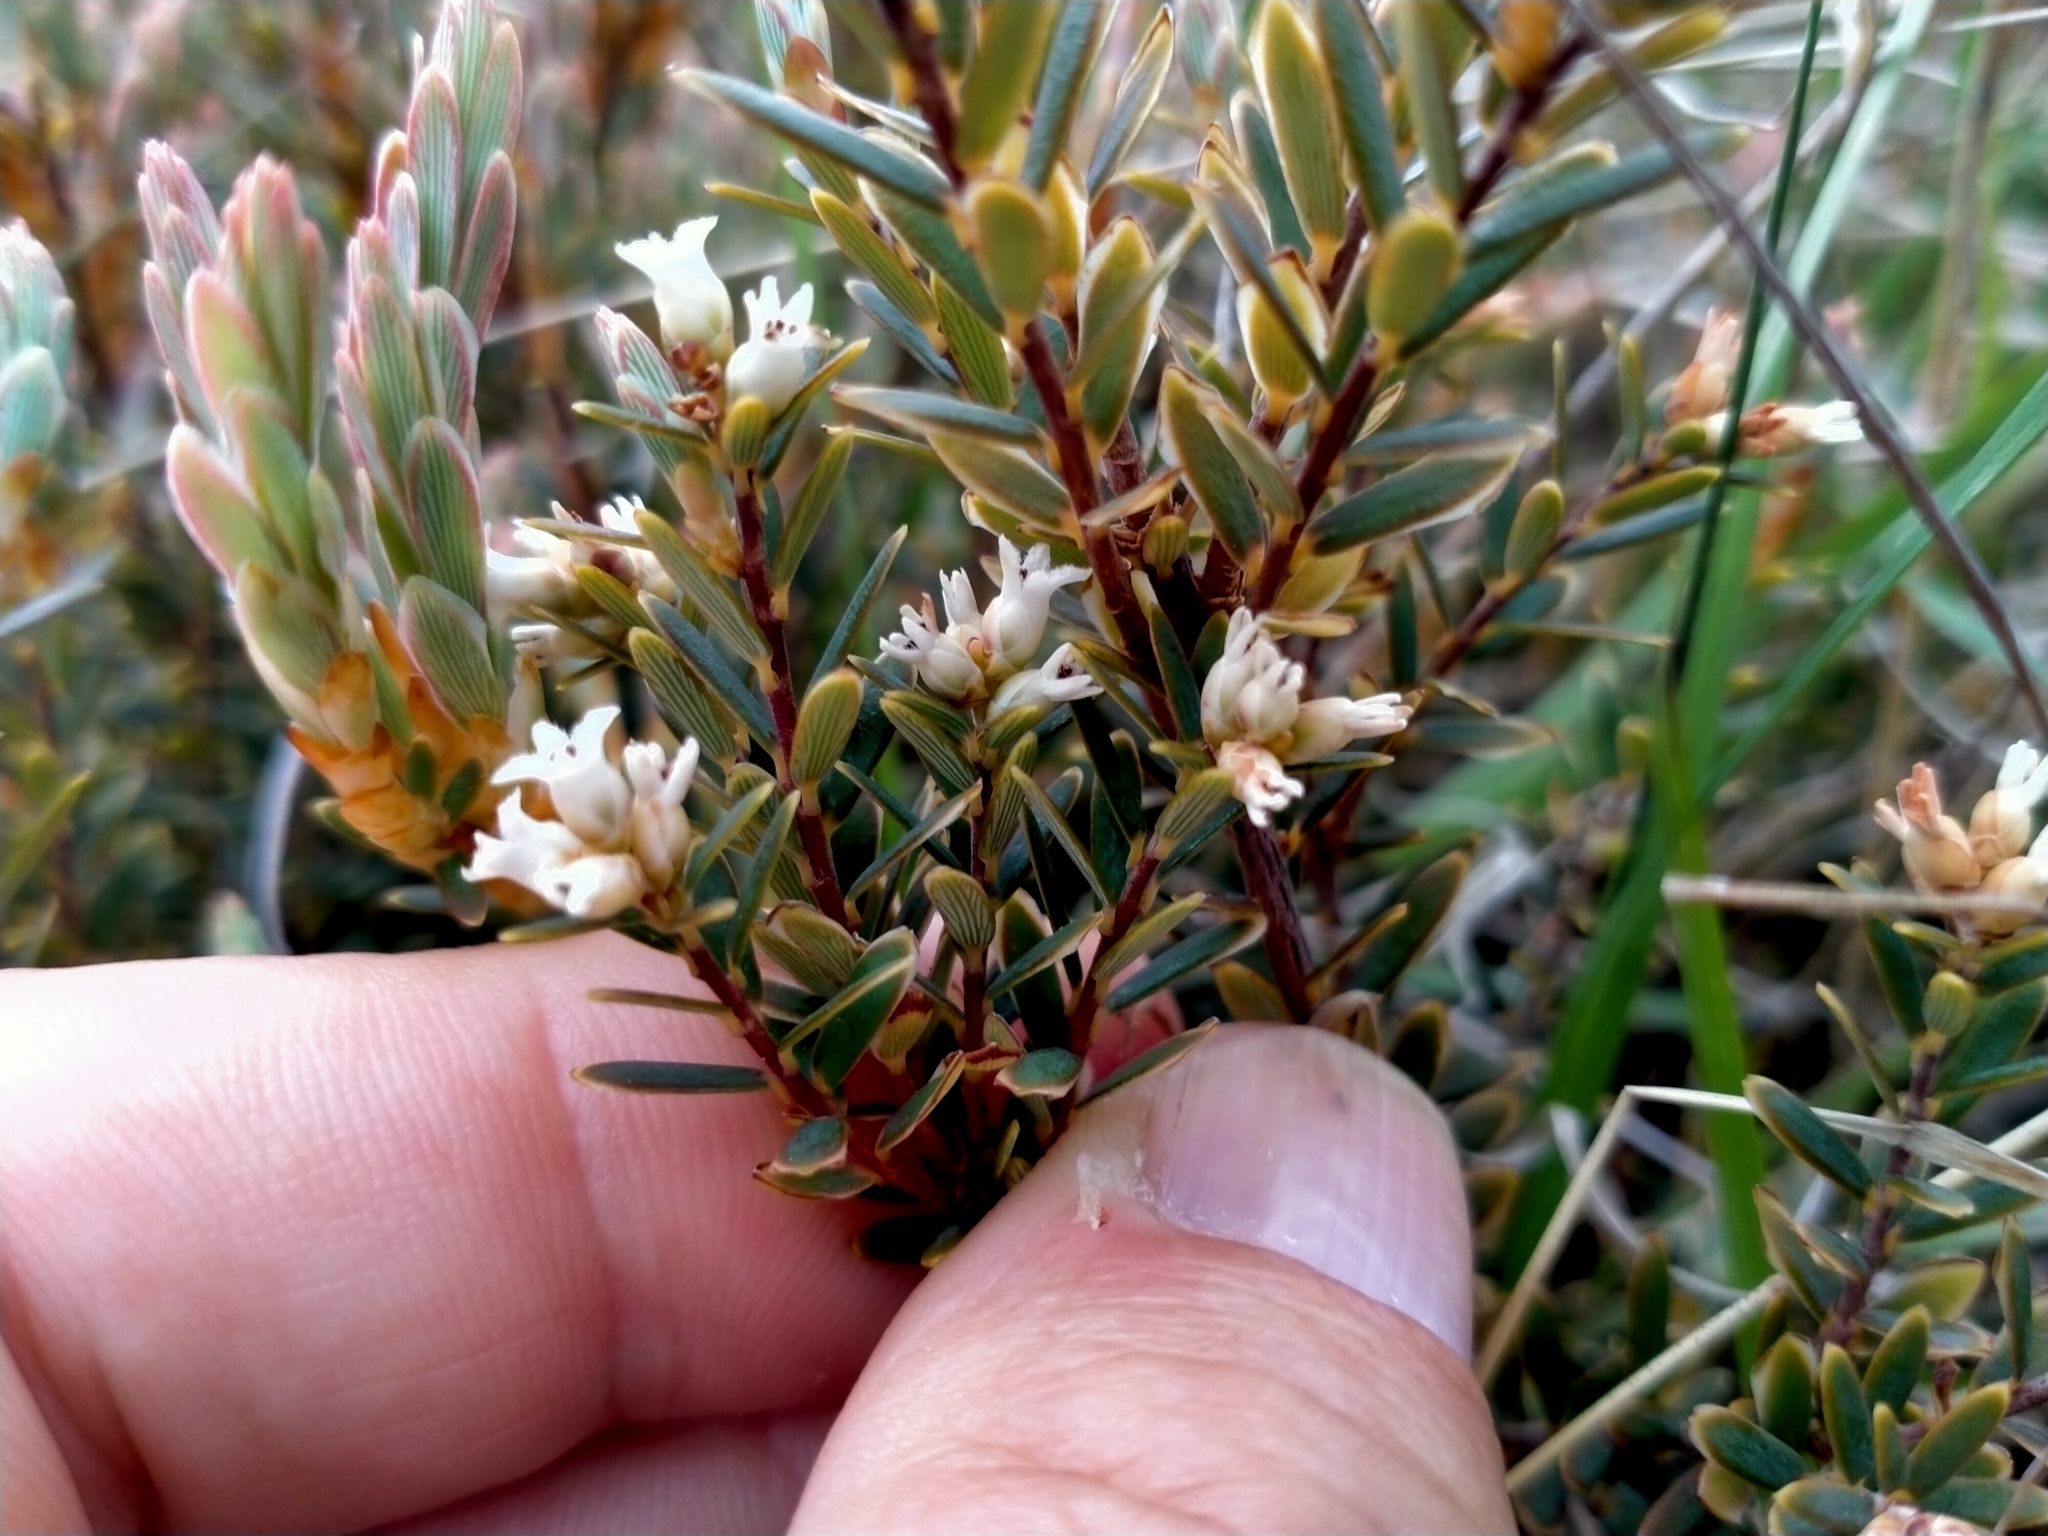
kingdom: Plantae
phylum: Tracheophyta
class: Magnoliopsida
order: Ericales
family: Ericaceae
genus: Acrothamnus
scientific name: Acrothamnus colensoi
